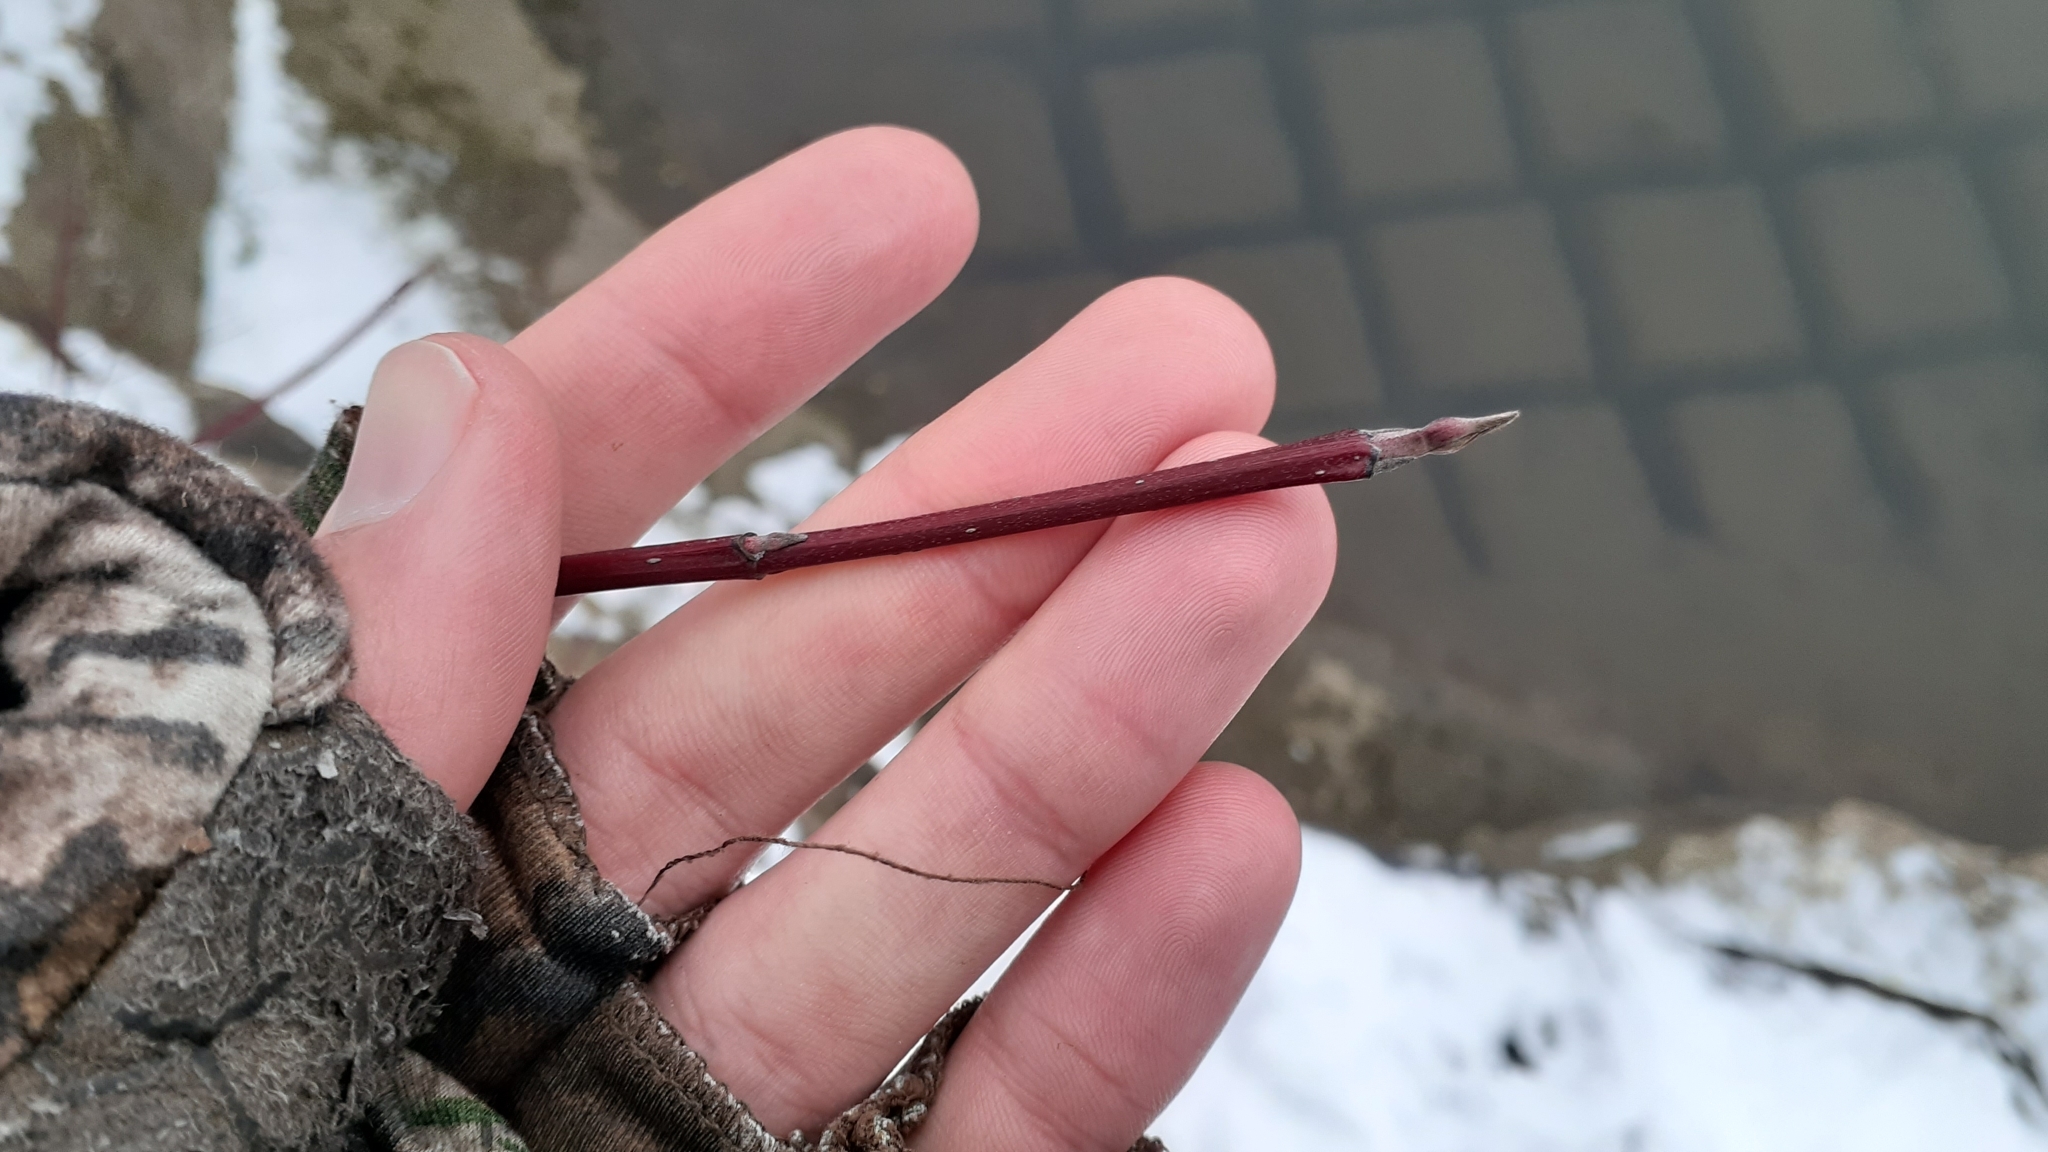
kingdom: Plantae
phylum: Tracheophyta
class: Magnoliopsida
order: Cornales
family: Cornaceae
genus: Cornus
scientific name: Cornus sericea
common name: Red-osier dogwood
